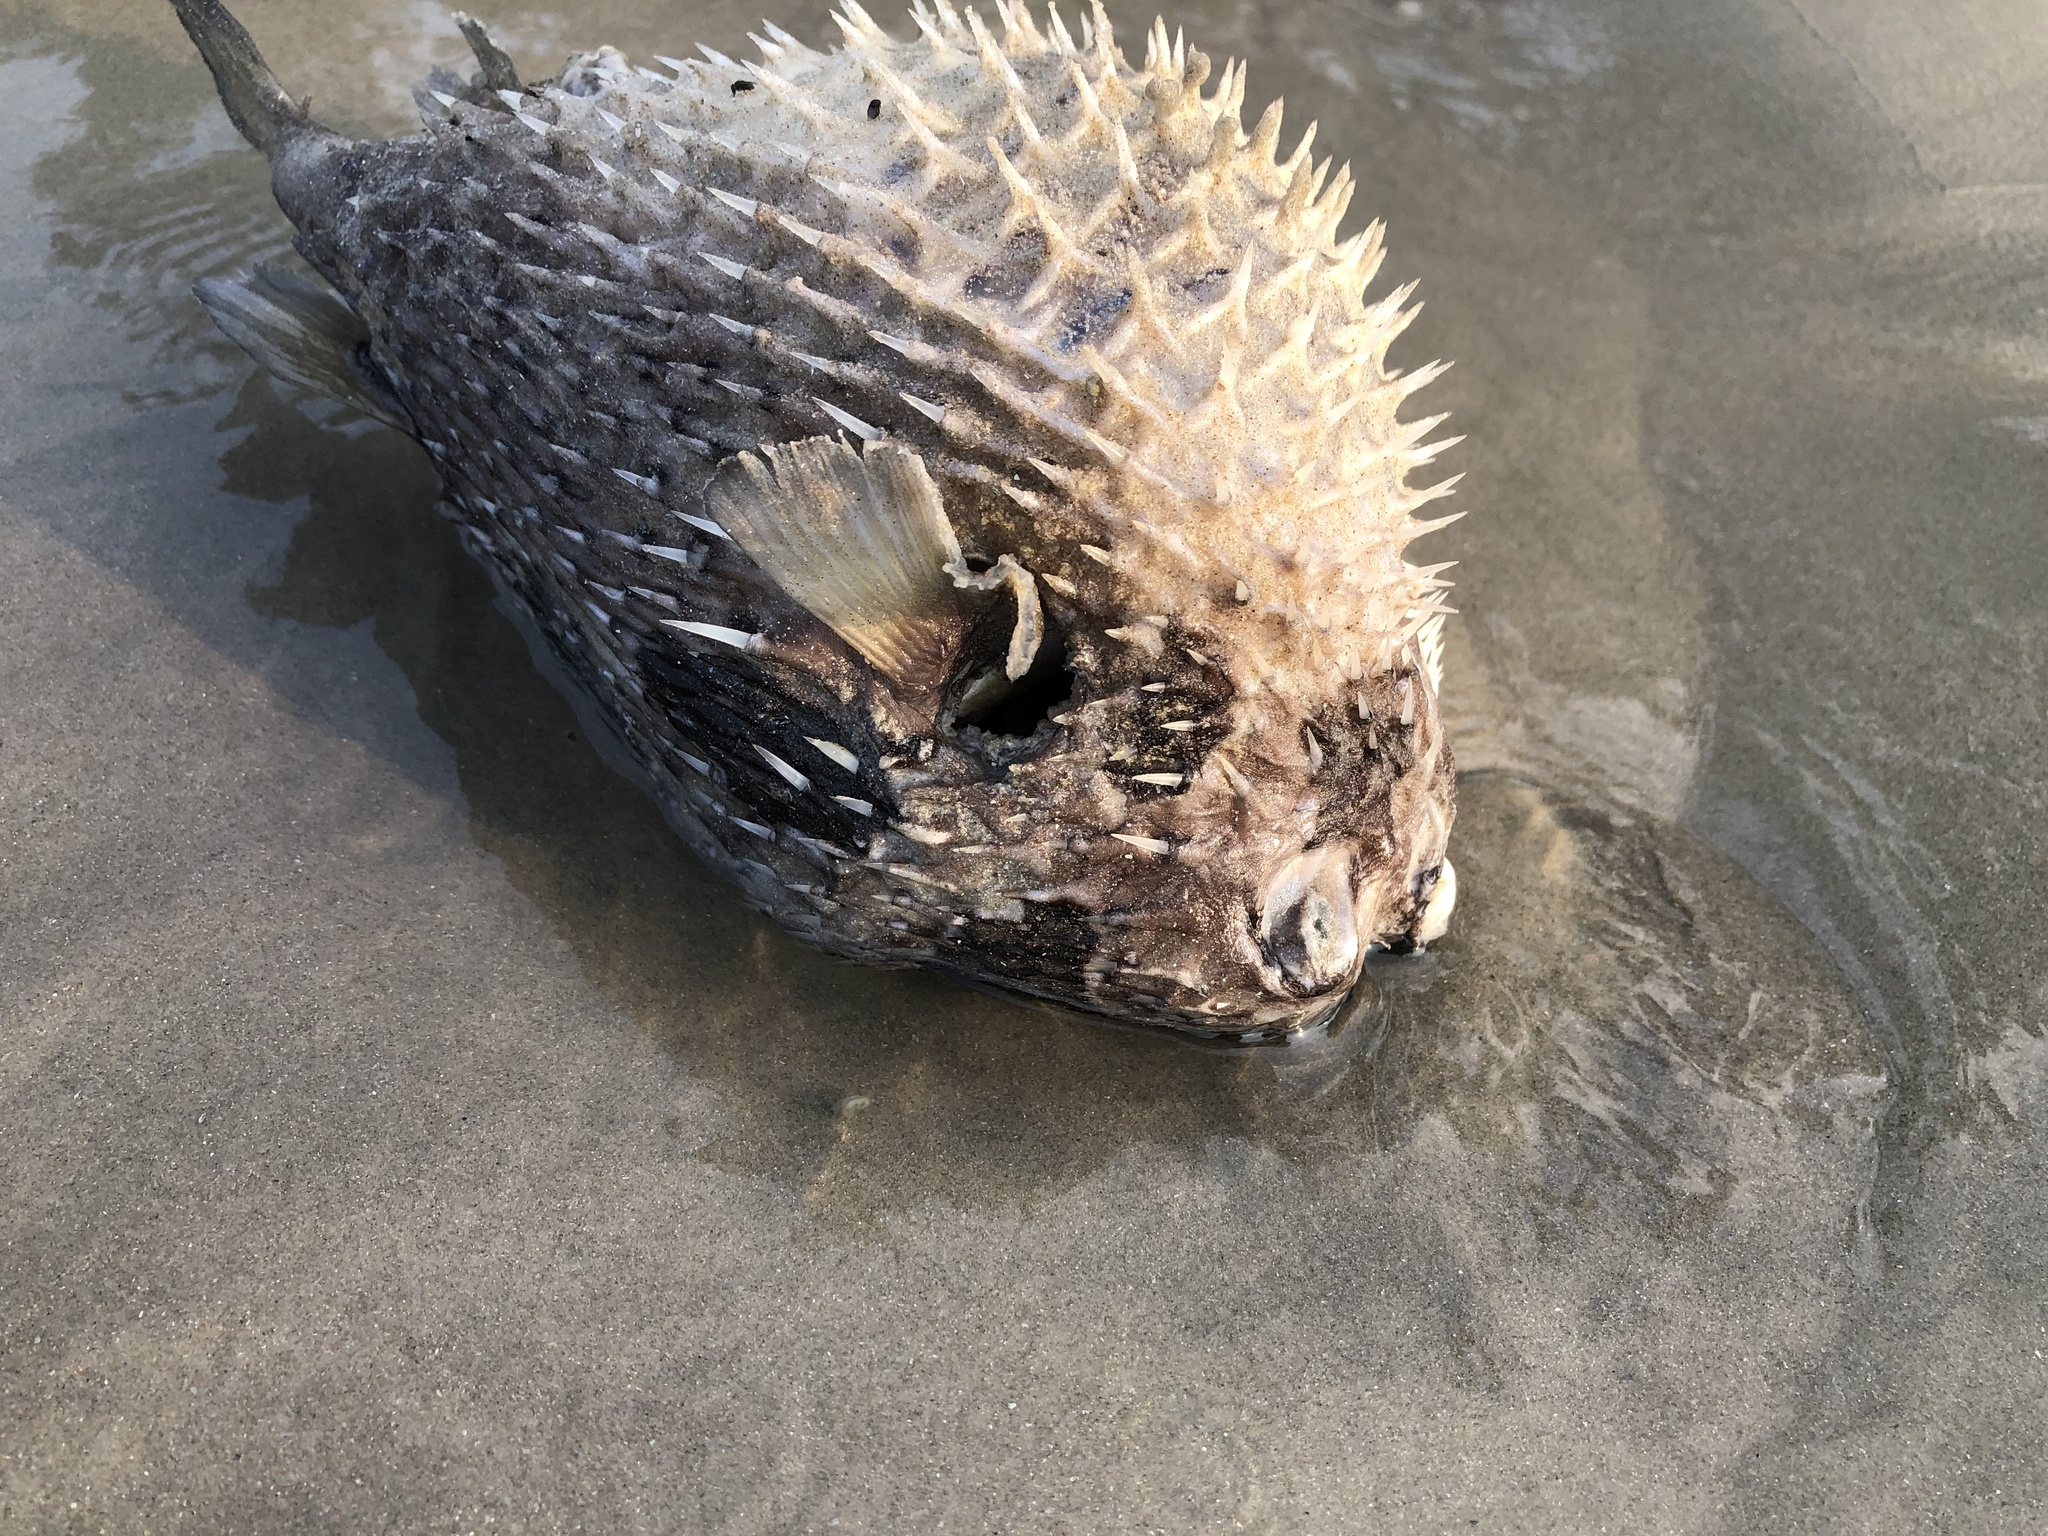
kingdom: Animalia
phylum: Chordata
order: Tetraodontiformes
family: Diodontidae
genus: Diodon
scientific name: Diodon liturosus
